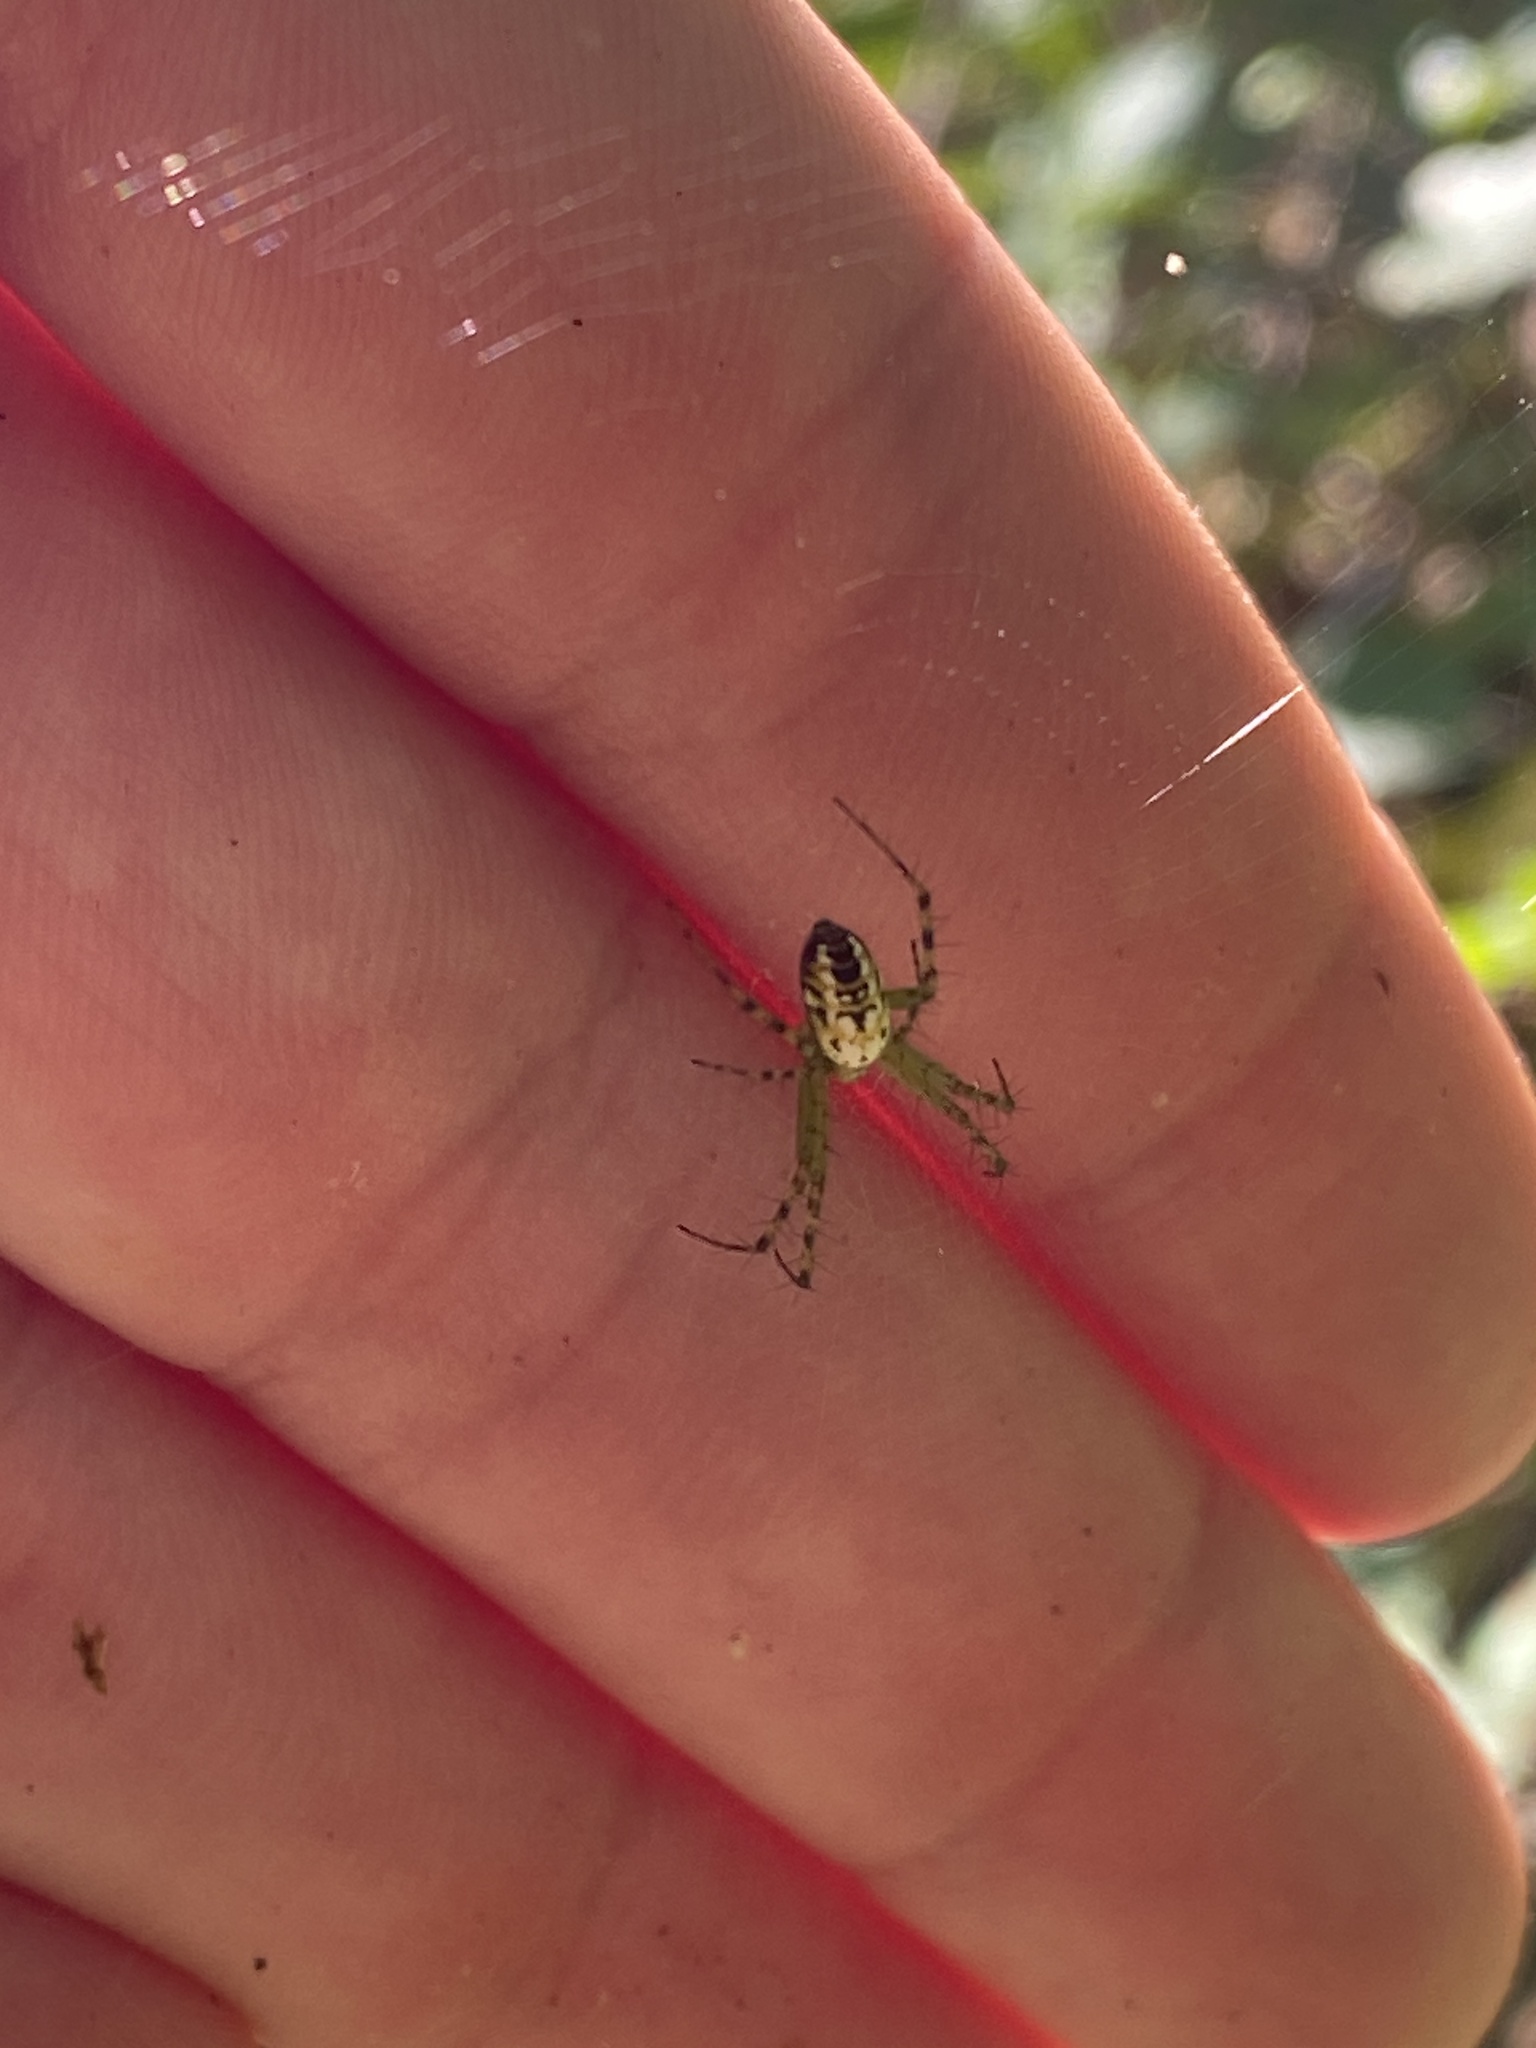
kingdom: Animalia
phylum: Arthropoda
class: Arachnida
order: Araneae
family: Araneidae
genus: Mangora
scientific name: Mangora spiculata
